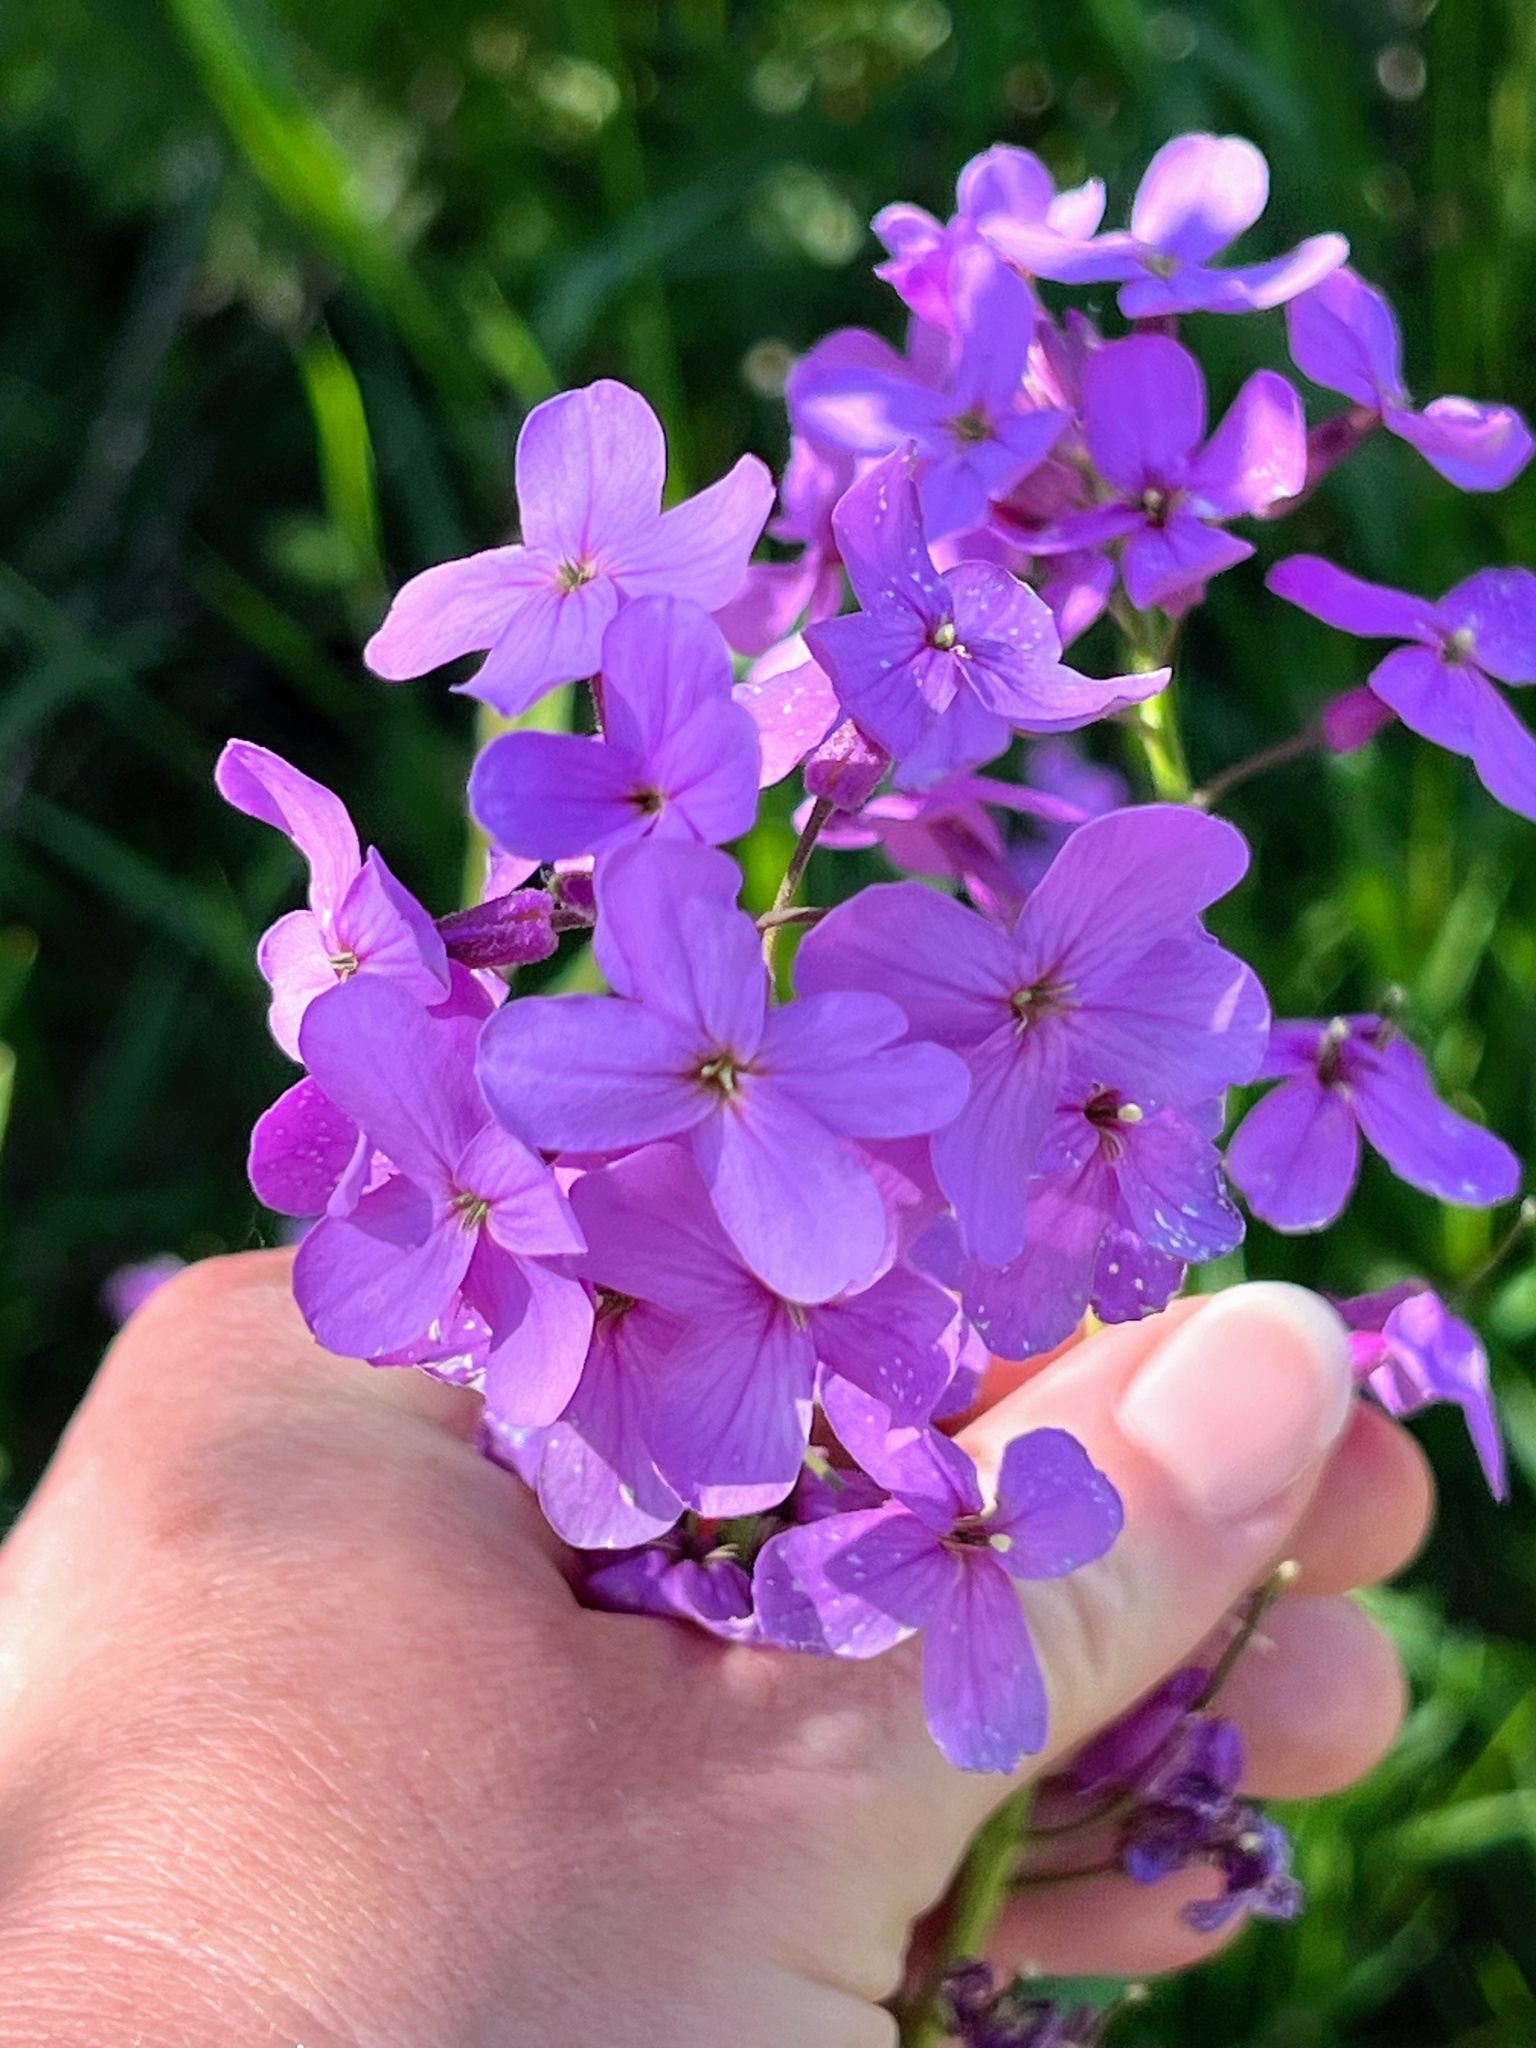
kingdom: Plantae
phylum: Tracheophyta
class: Magnoliopsida
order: Brassicales
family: Brassicaceae
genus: Hesperis
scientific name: Hesperis matronalis
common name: Dame's-violet
